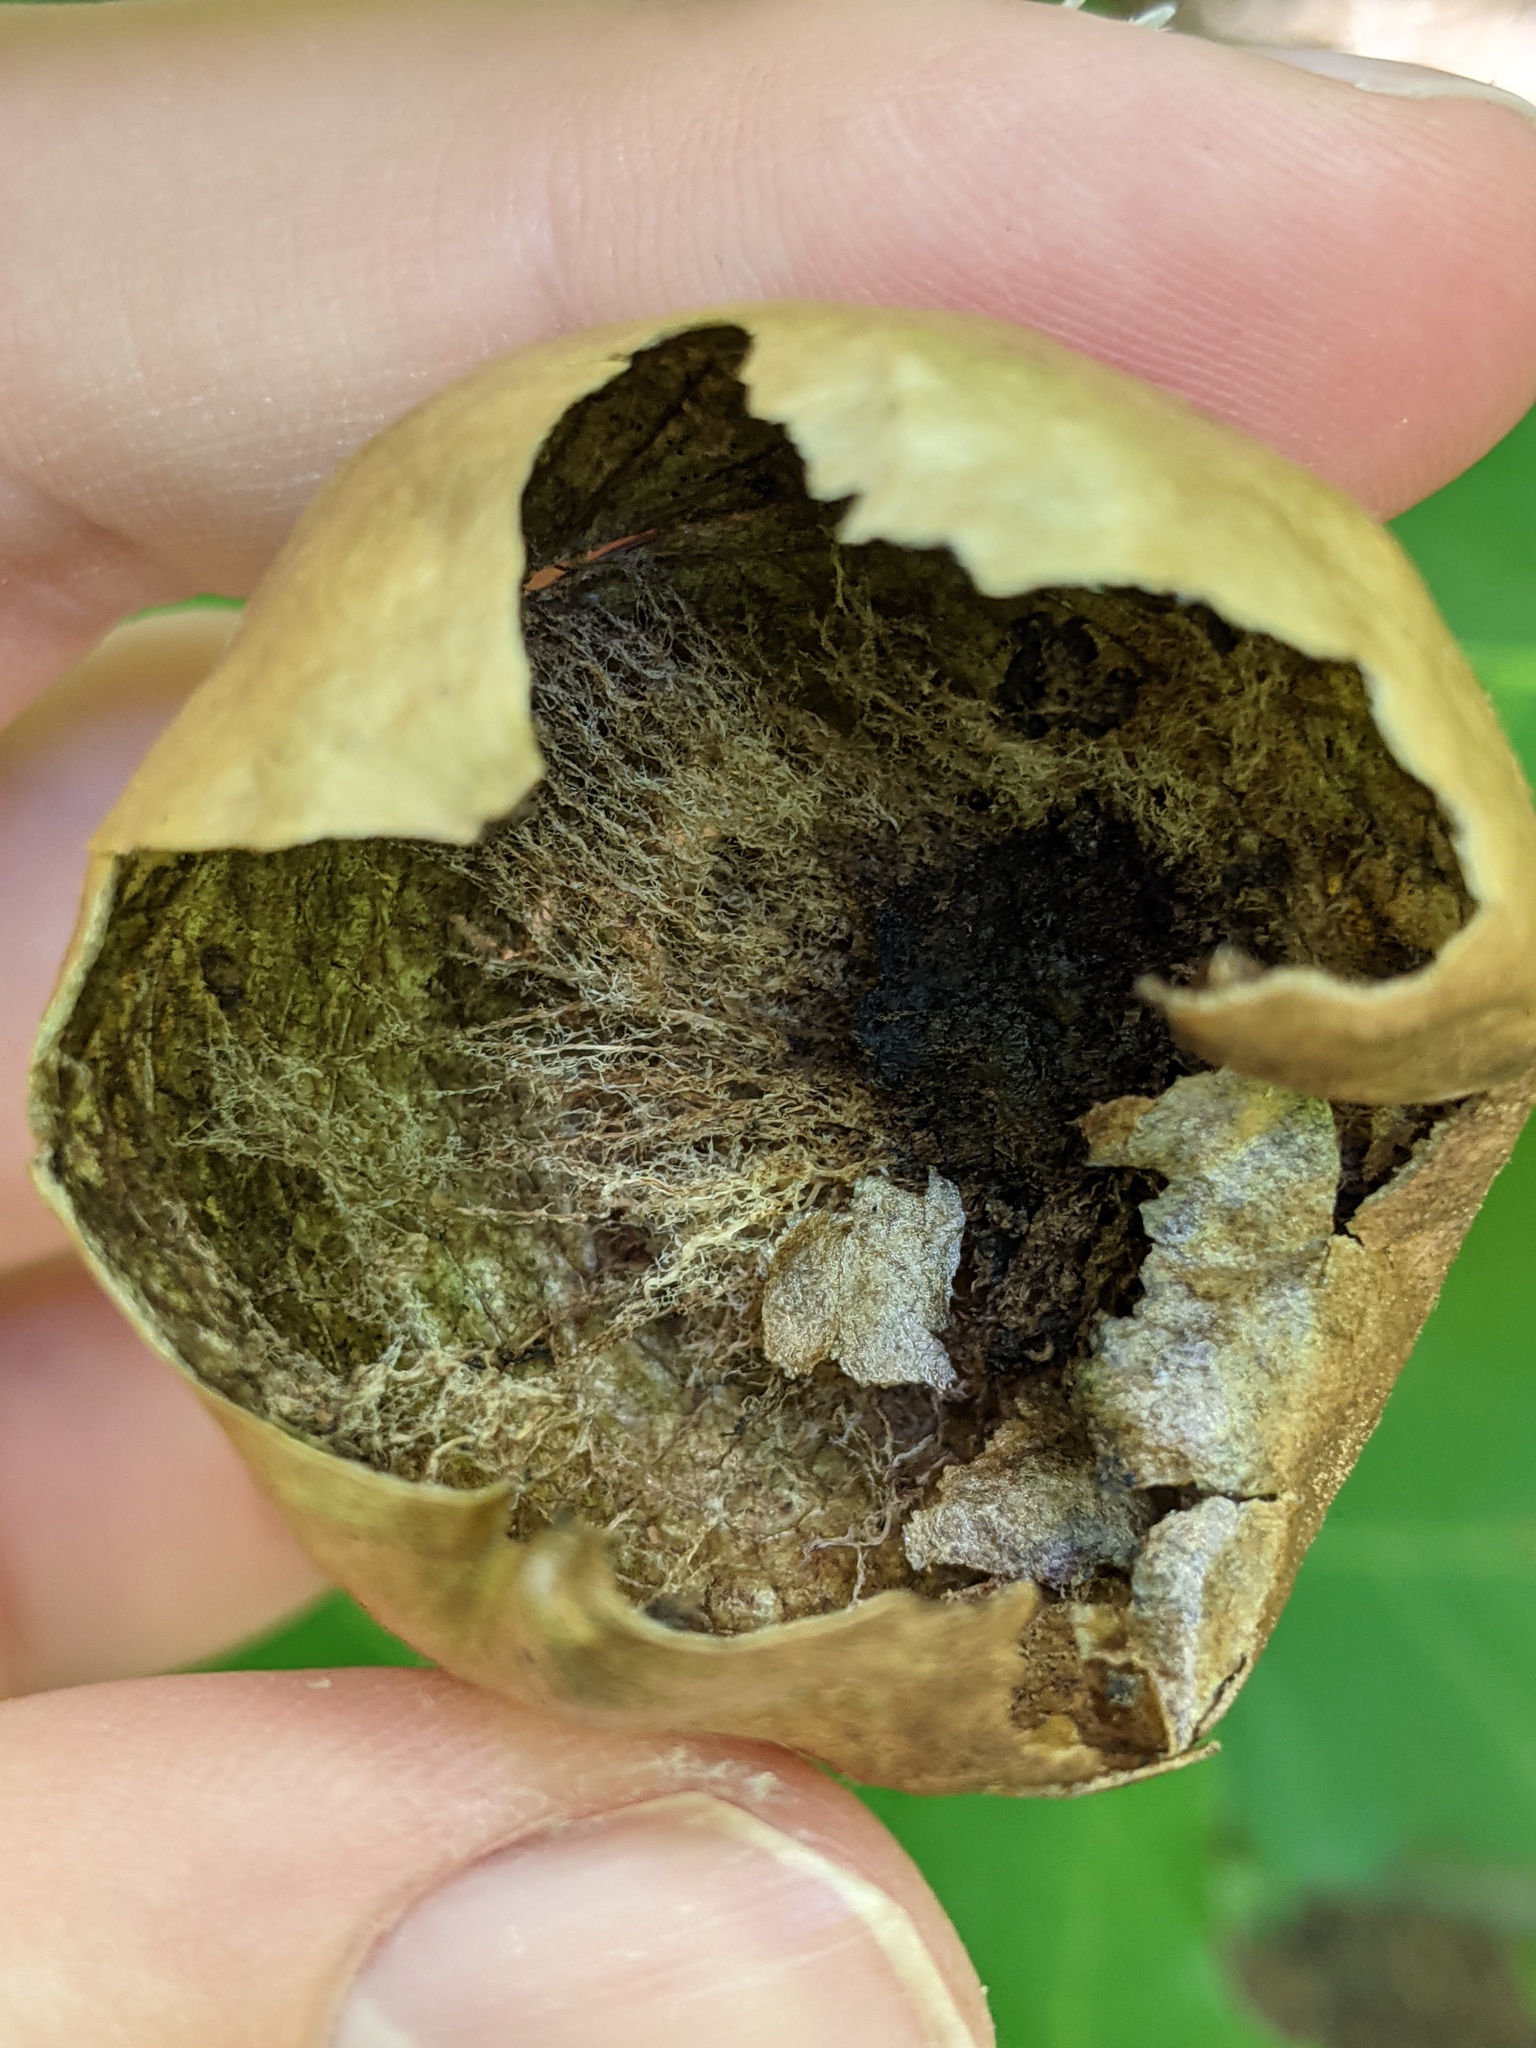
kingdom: Animalia
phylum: Arthropoda
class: Insecta
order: Hymenoptera
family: Cynipidae
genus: Amphibolips
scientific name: Amphibolips
